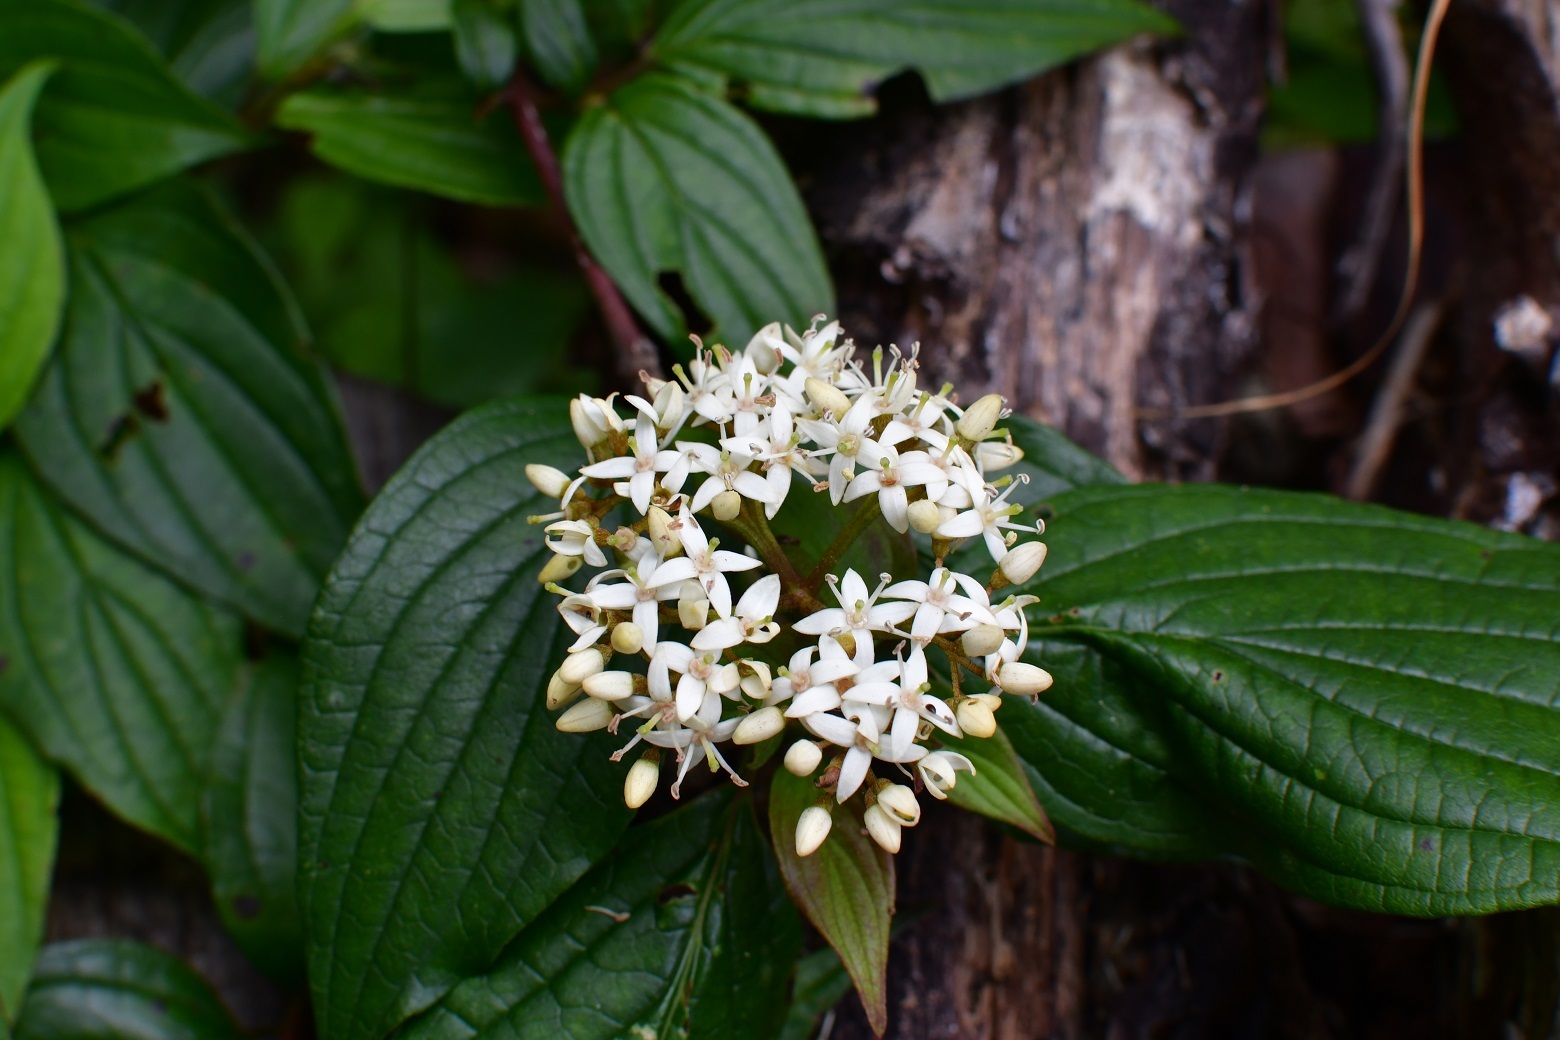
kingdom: Plantae
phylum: Tracheophyta
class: Magnoliopsida
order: Cornales
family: Cornaceae
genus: Cornus
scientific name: Cornus excelsa
